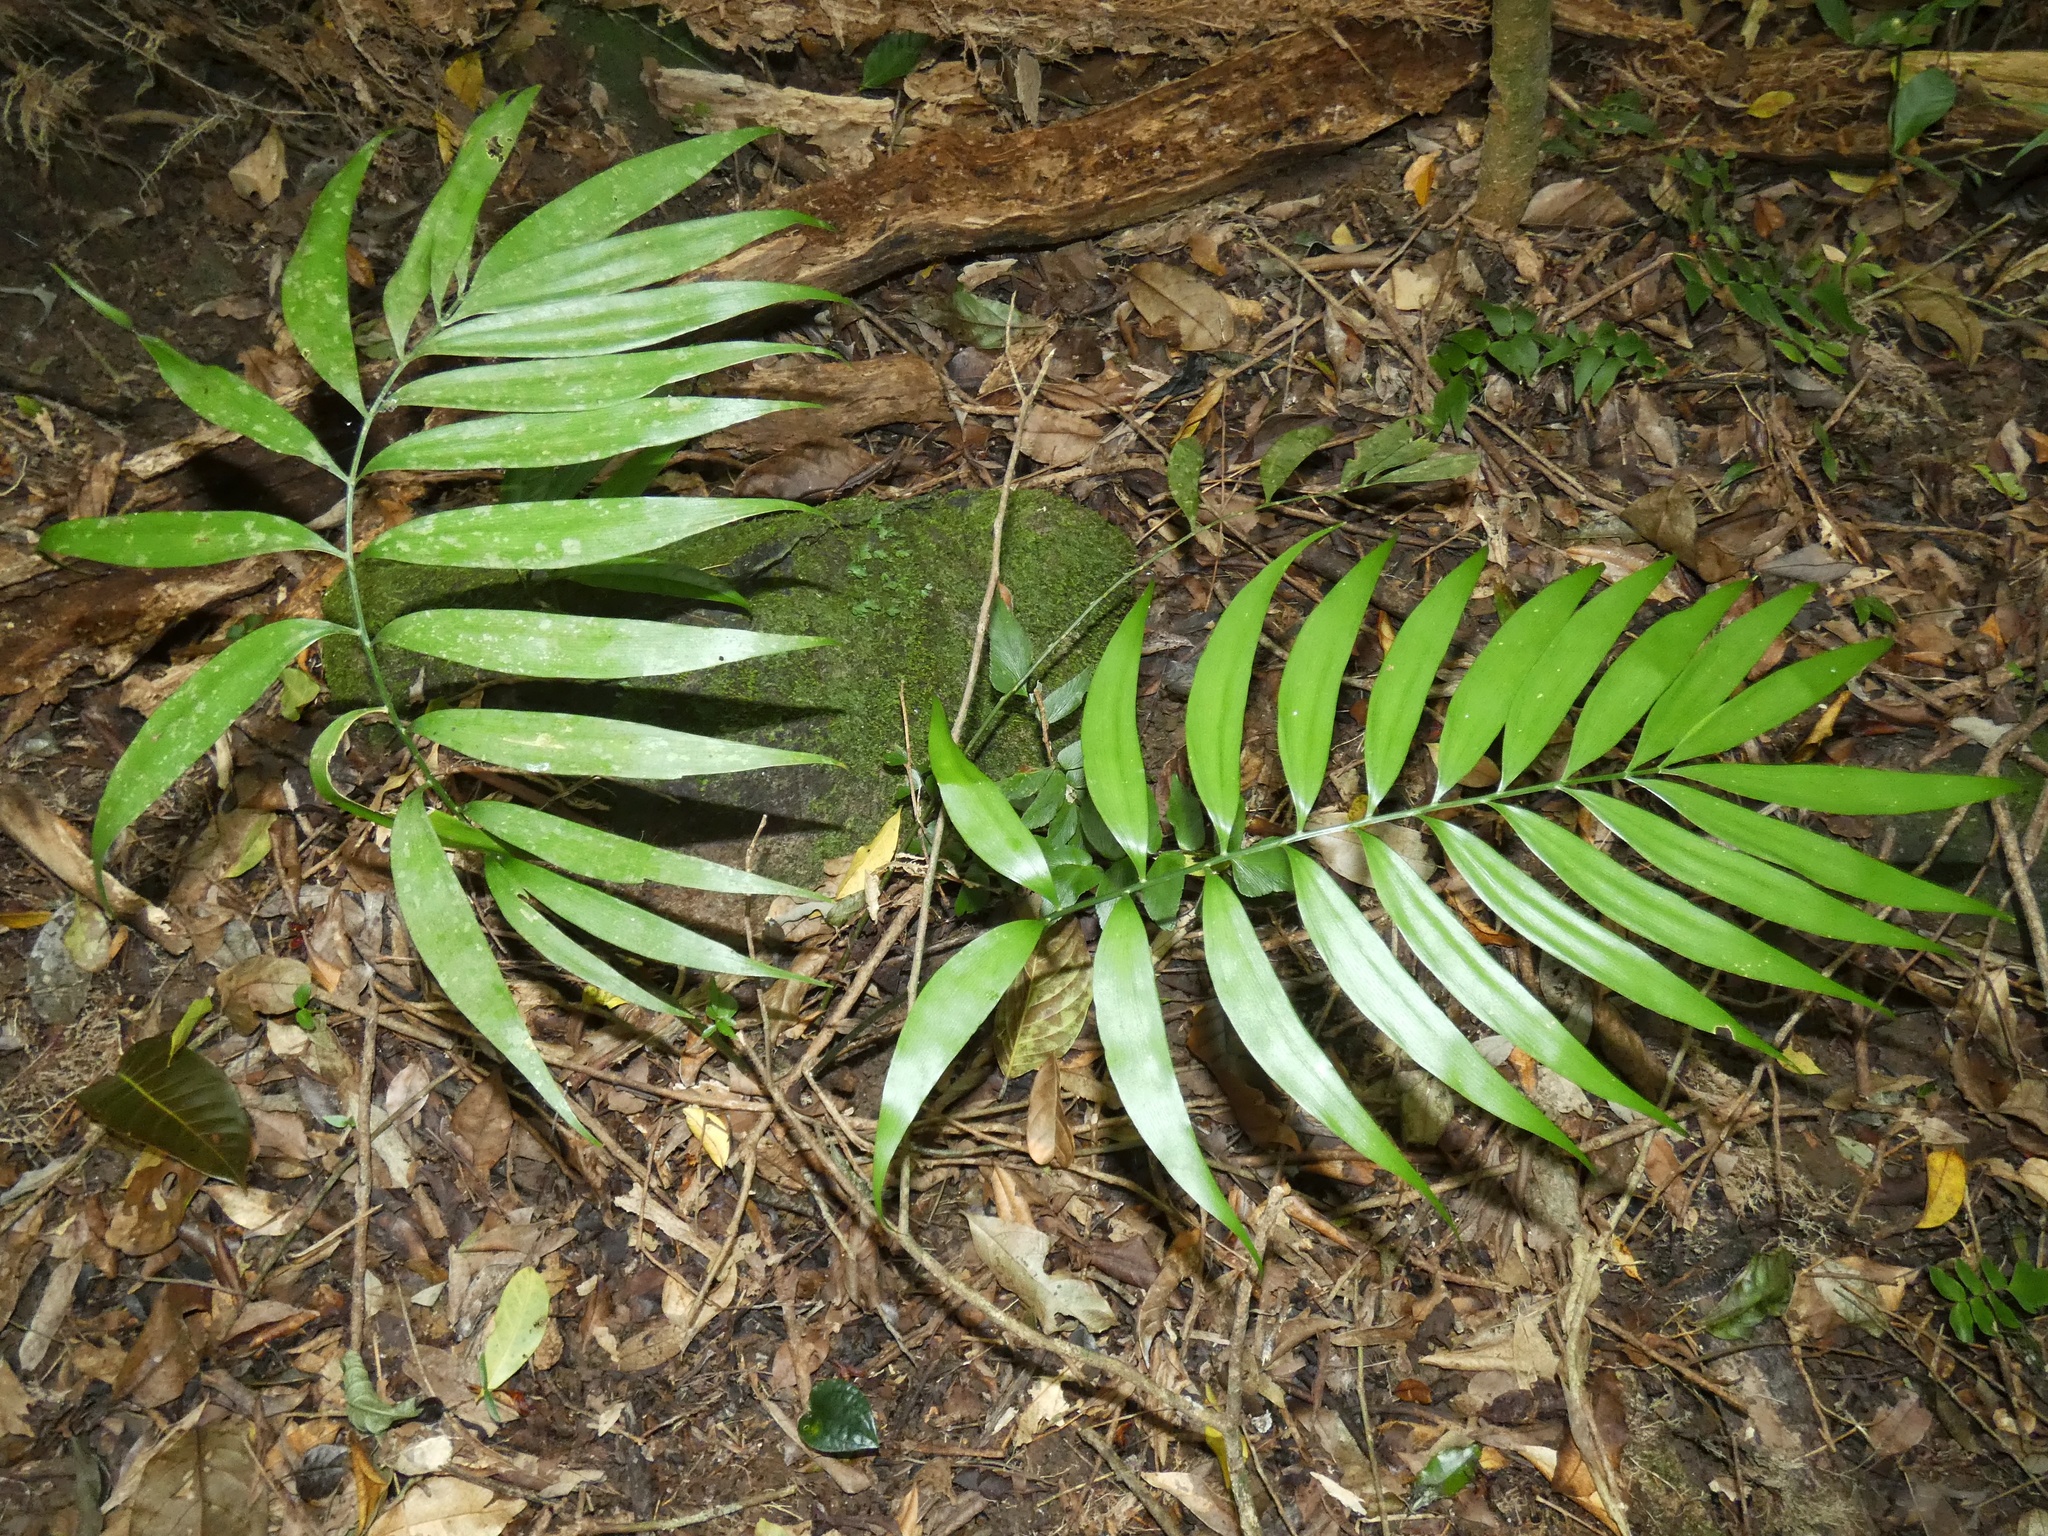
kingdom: Plantae
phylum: Tracheophyta
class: Cycadopsida
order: Cycadales
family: Zamiaceae
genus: Zamia
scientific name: Zamia nana
